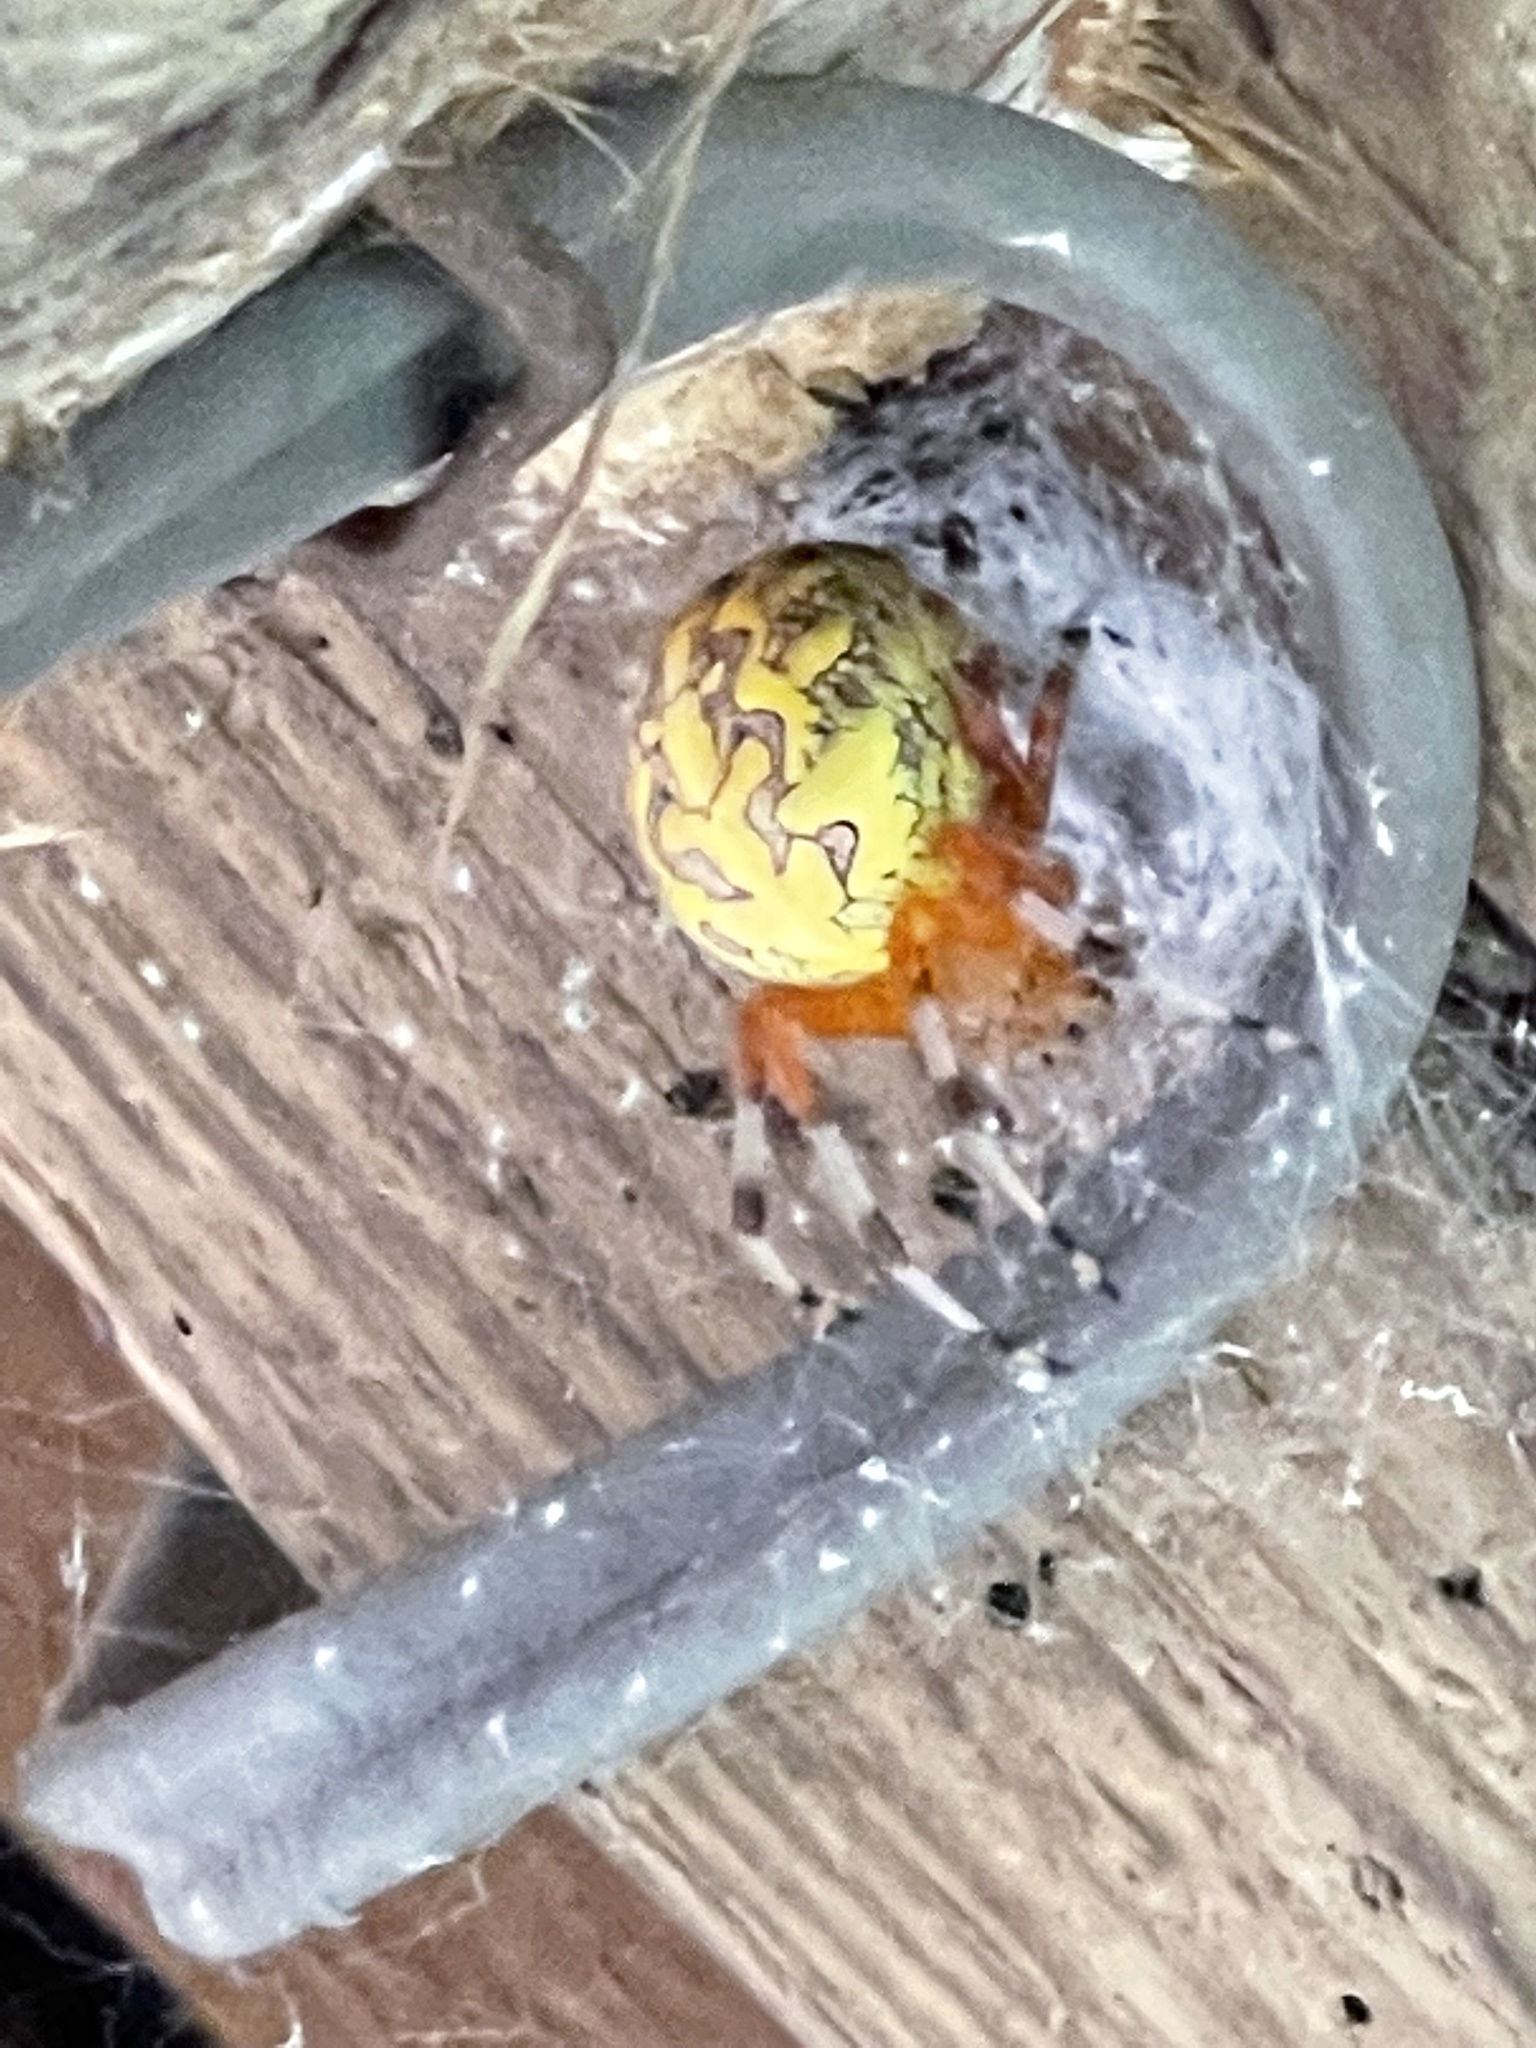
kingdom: Animalia
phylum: Arthropoda
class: Arachnida
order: Araneae
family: Araneidae
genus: Araneus
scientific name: Araneus marmoreus
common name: Marbled orbweaver
